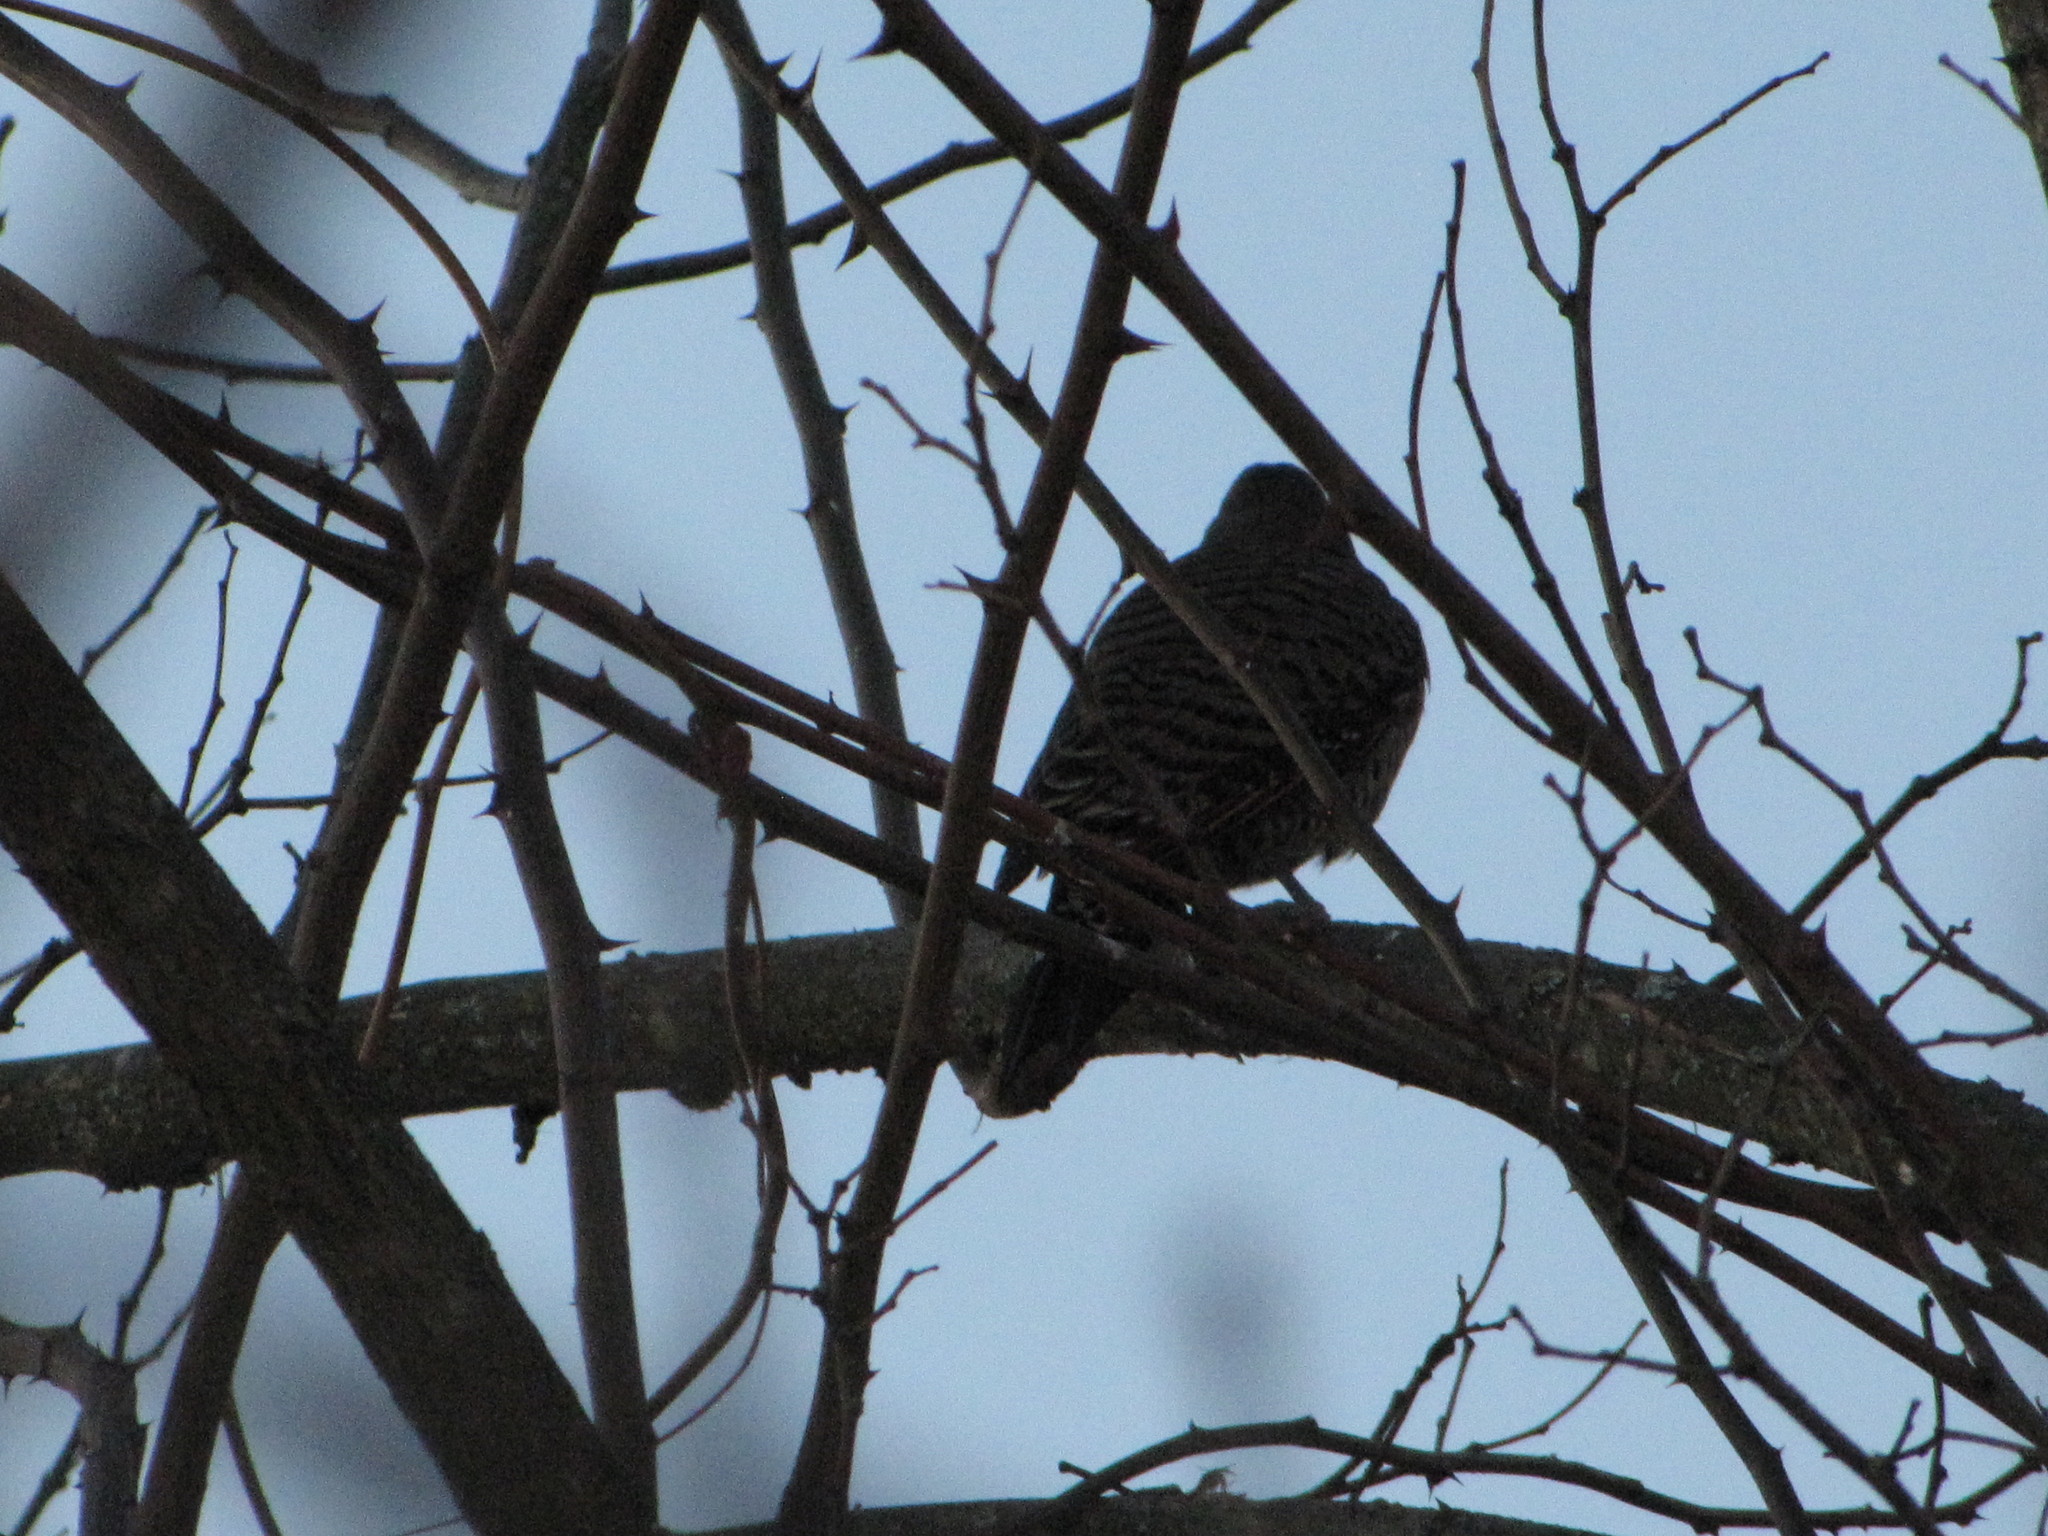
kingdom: Animalia
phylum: Chordata
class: Aves
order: Piciformes
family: Picidae
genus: Colaptes
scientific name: Colaptes auratus
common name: Northern flicker
